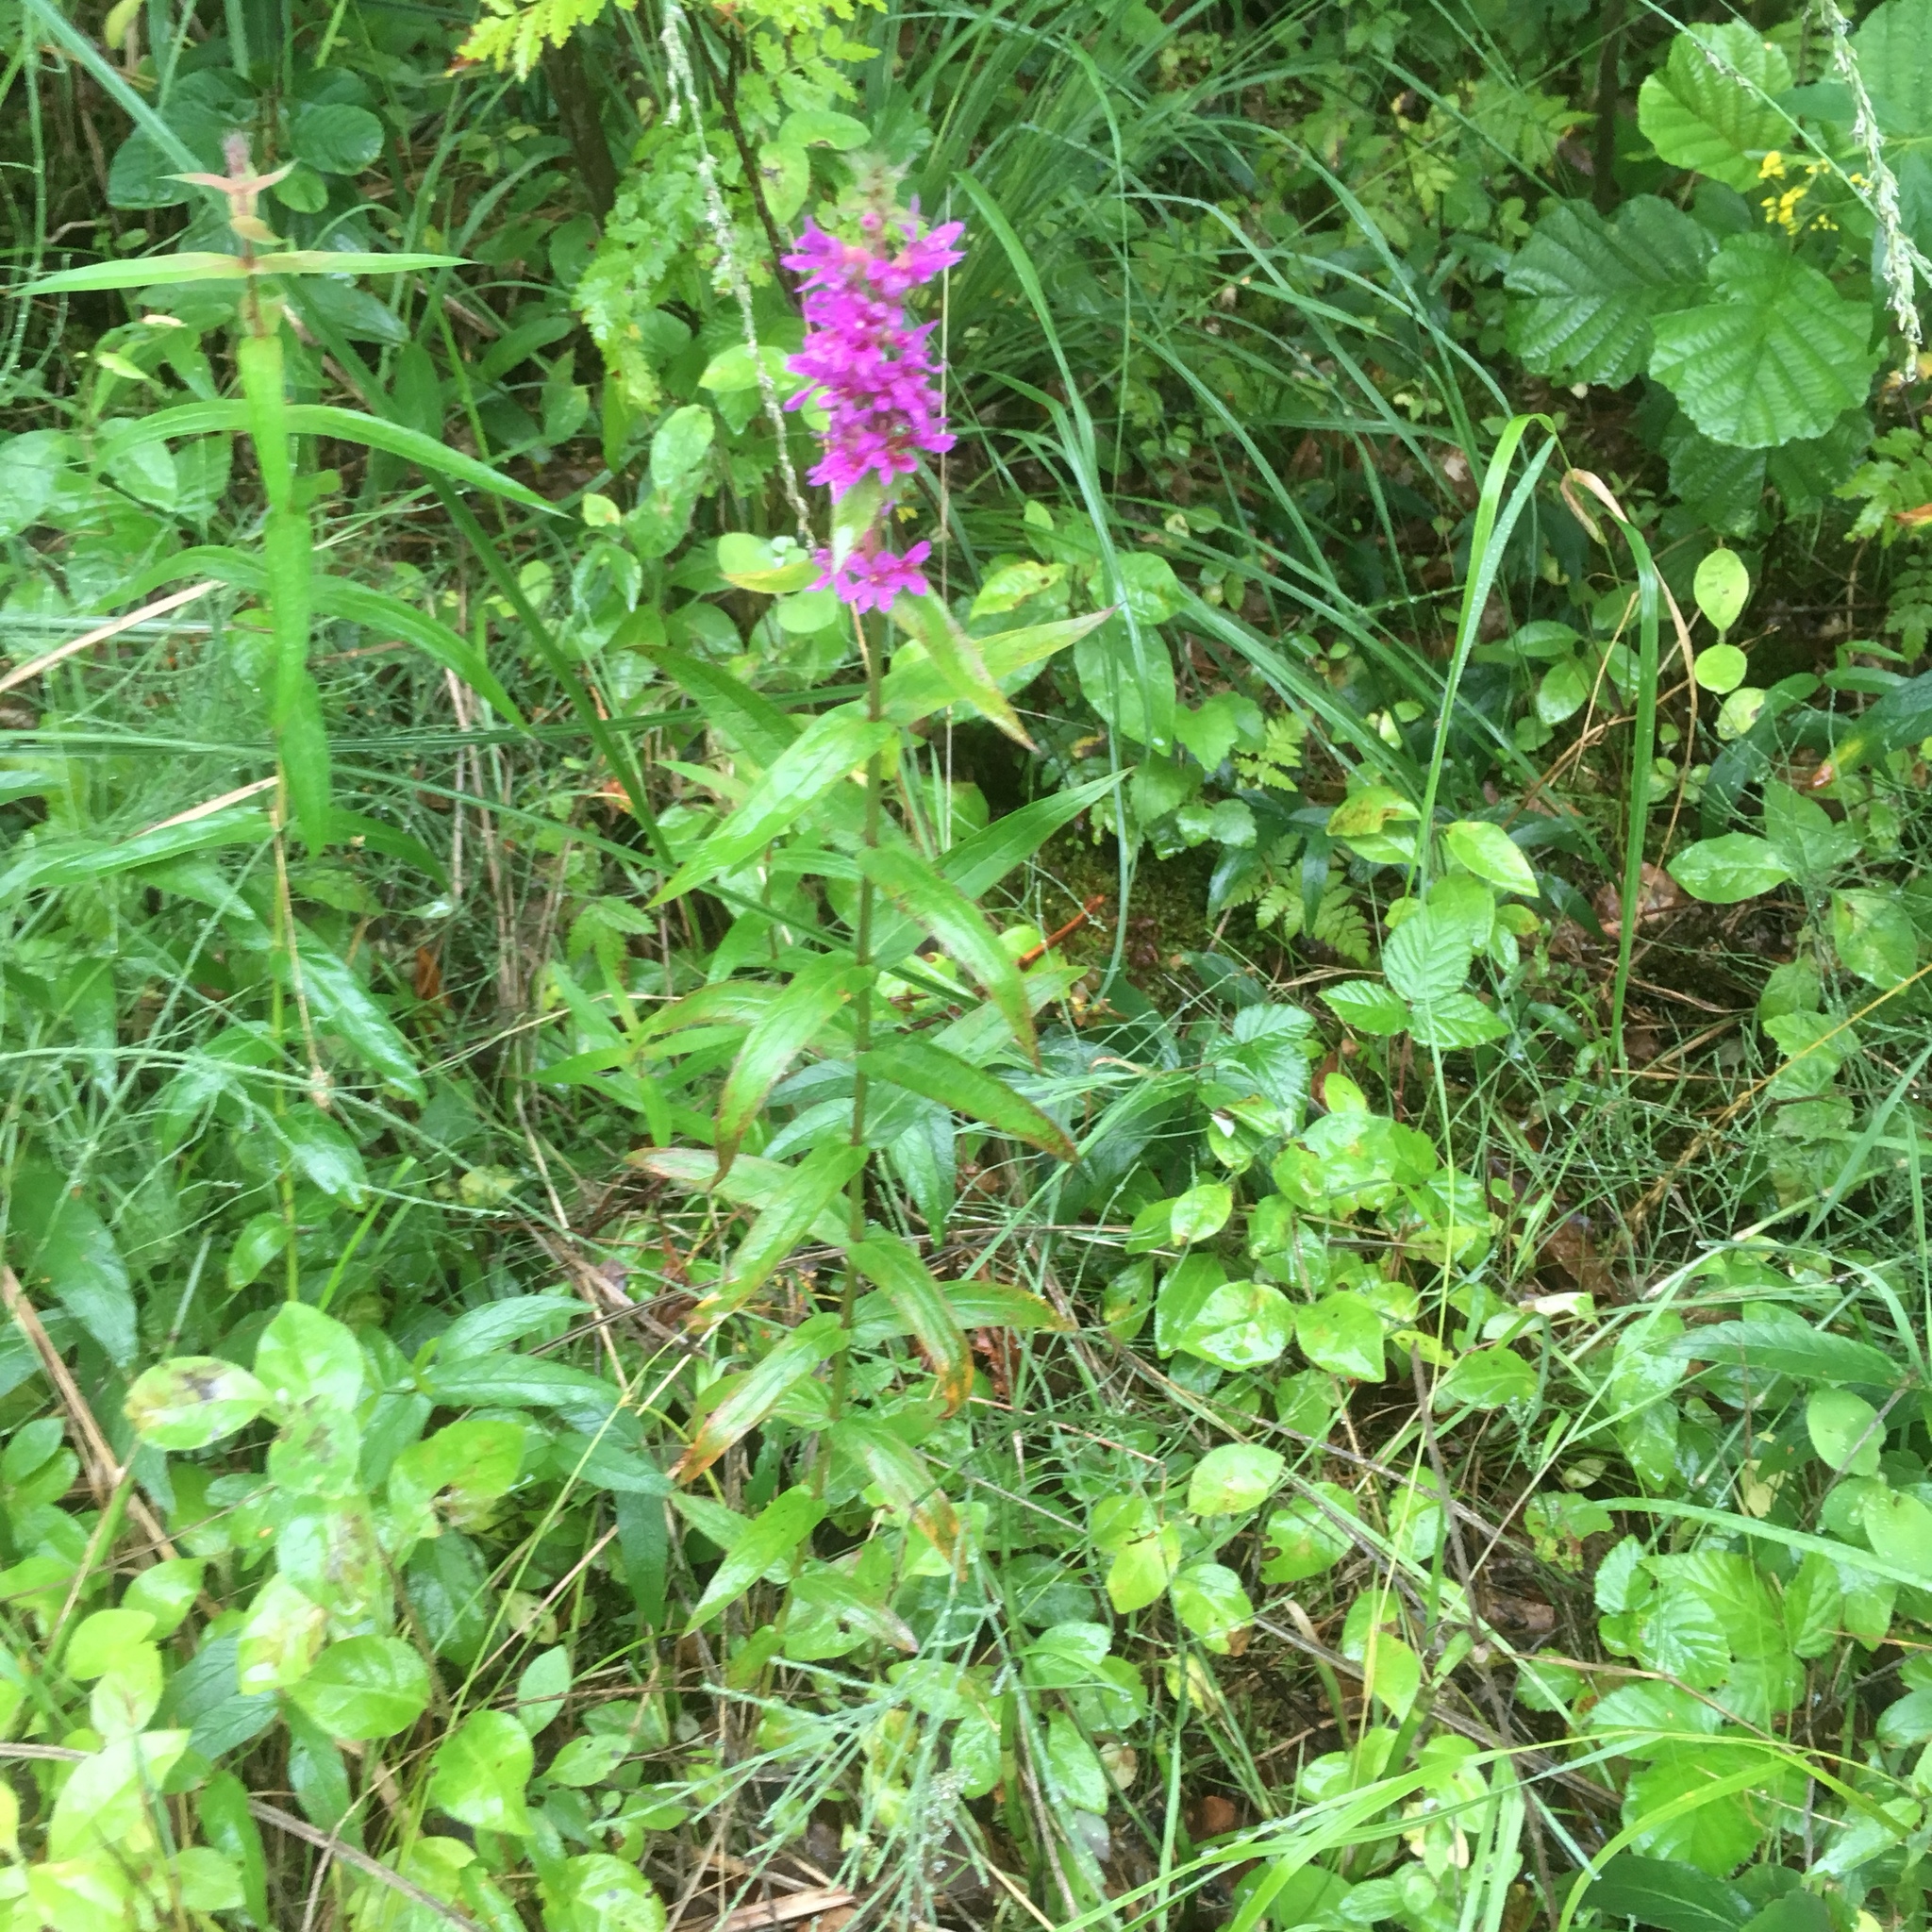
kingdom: Plantae
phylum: Tracheophyta
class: Magnoliopsida
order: Myrtales
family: Lythraceae
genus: Lythrum
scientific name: Lythrum salicaria
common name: Purple loosestrife
